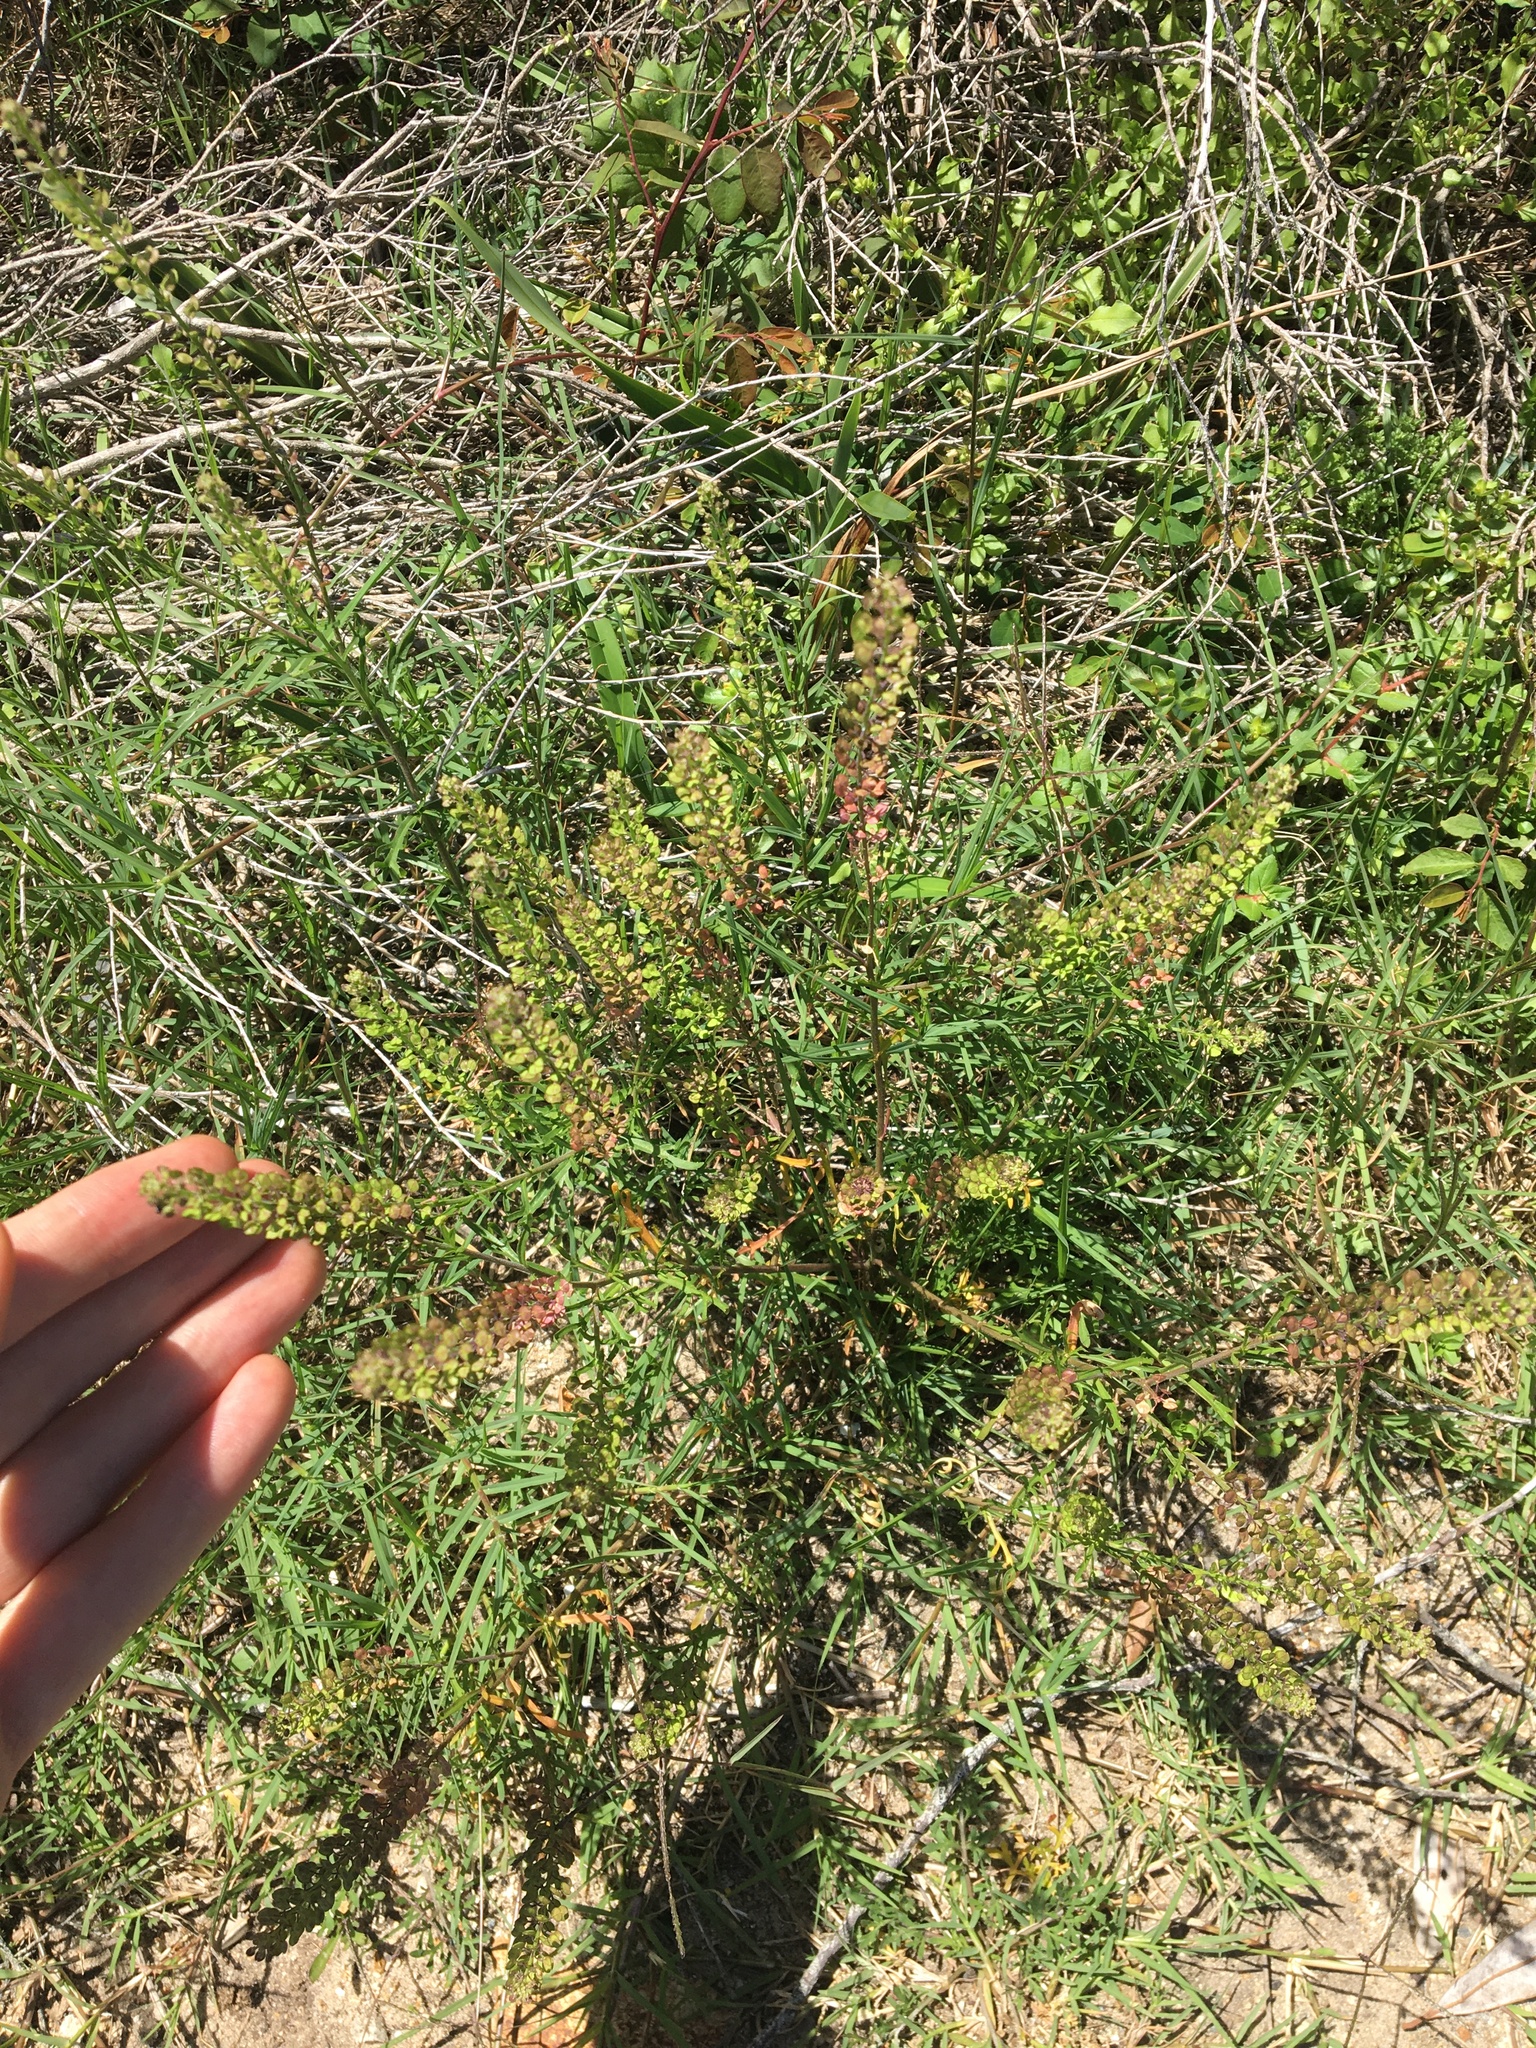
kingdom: Plantae
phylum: Tracheophyta
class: Magnoliopsida
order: Brassicales
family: Brassicaceae
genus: Lepidium
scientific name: Lepidium bonariense
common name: Argentine pepperwort
